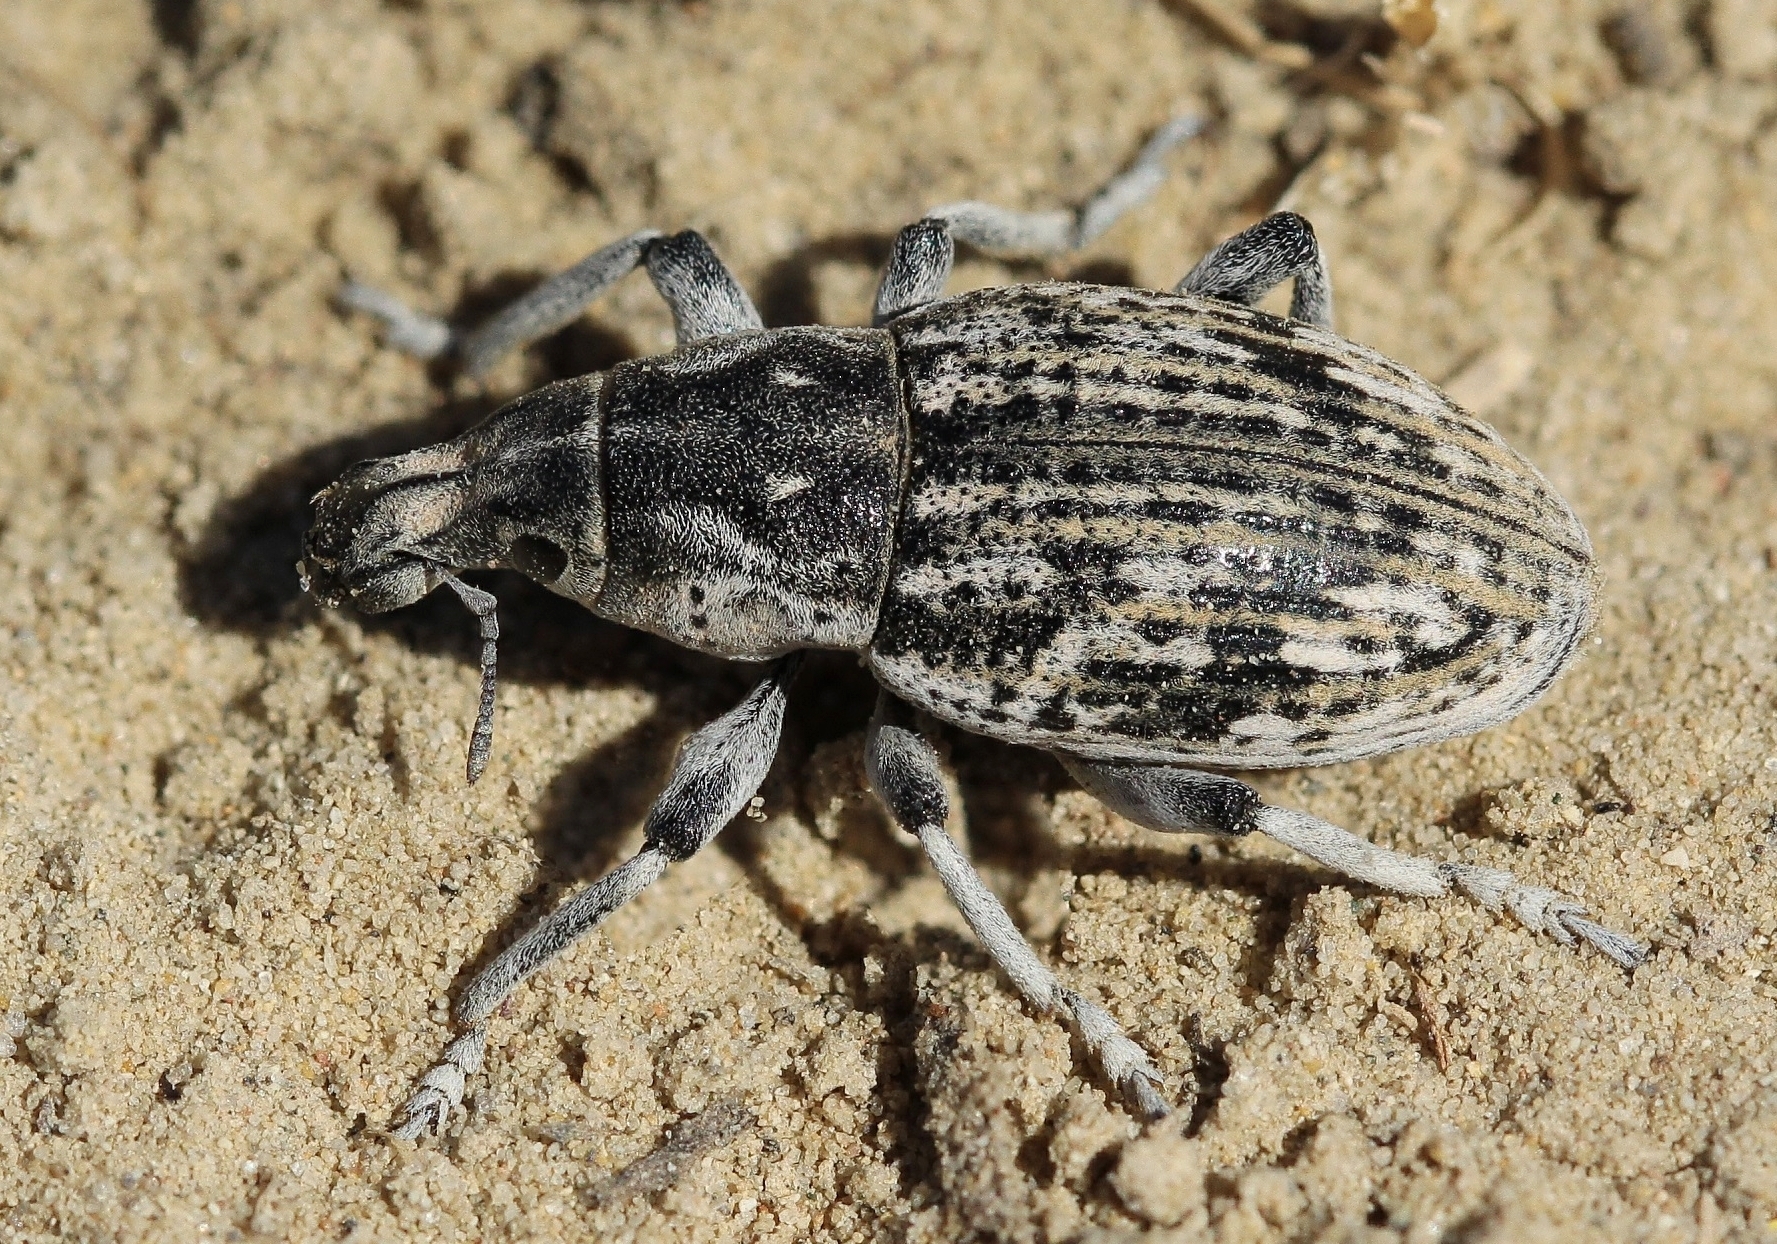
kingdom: Animalia
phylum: Arthropoda
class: Insecta
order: Coleoptera
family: Curculionidae
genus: Cleonis
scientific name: Cleonis granosa
